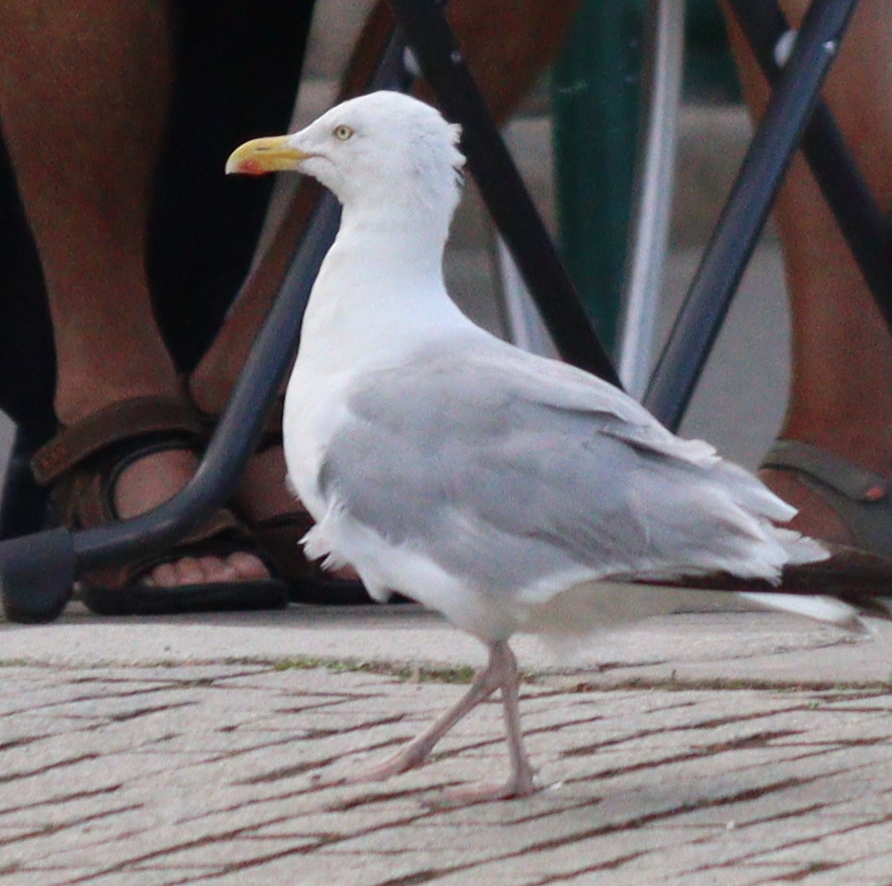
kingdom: Animalia
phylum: Chordata
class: Aves
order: Charadriiformes
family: Laridae
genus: Larus
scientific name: Larus argentatus
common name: Herring gull
